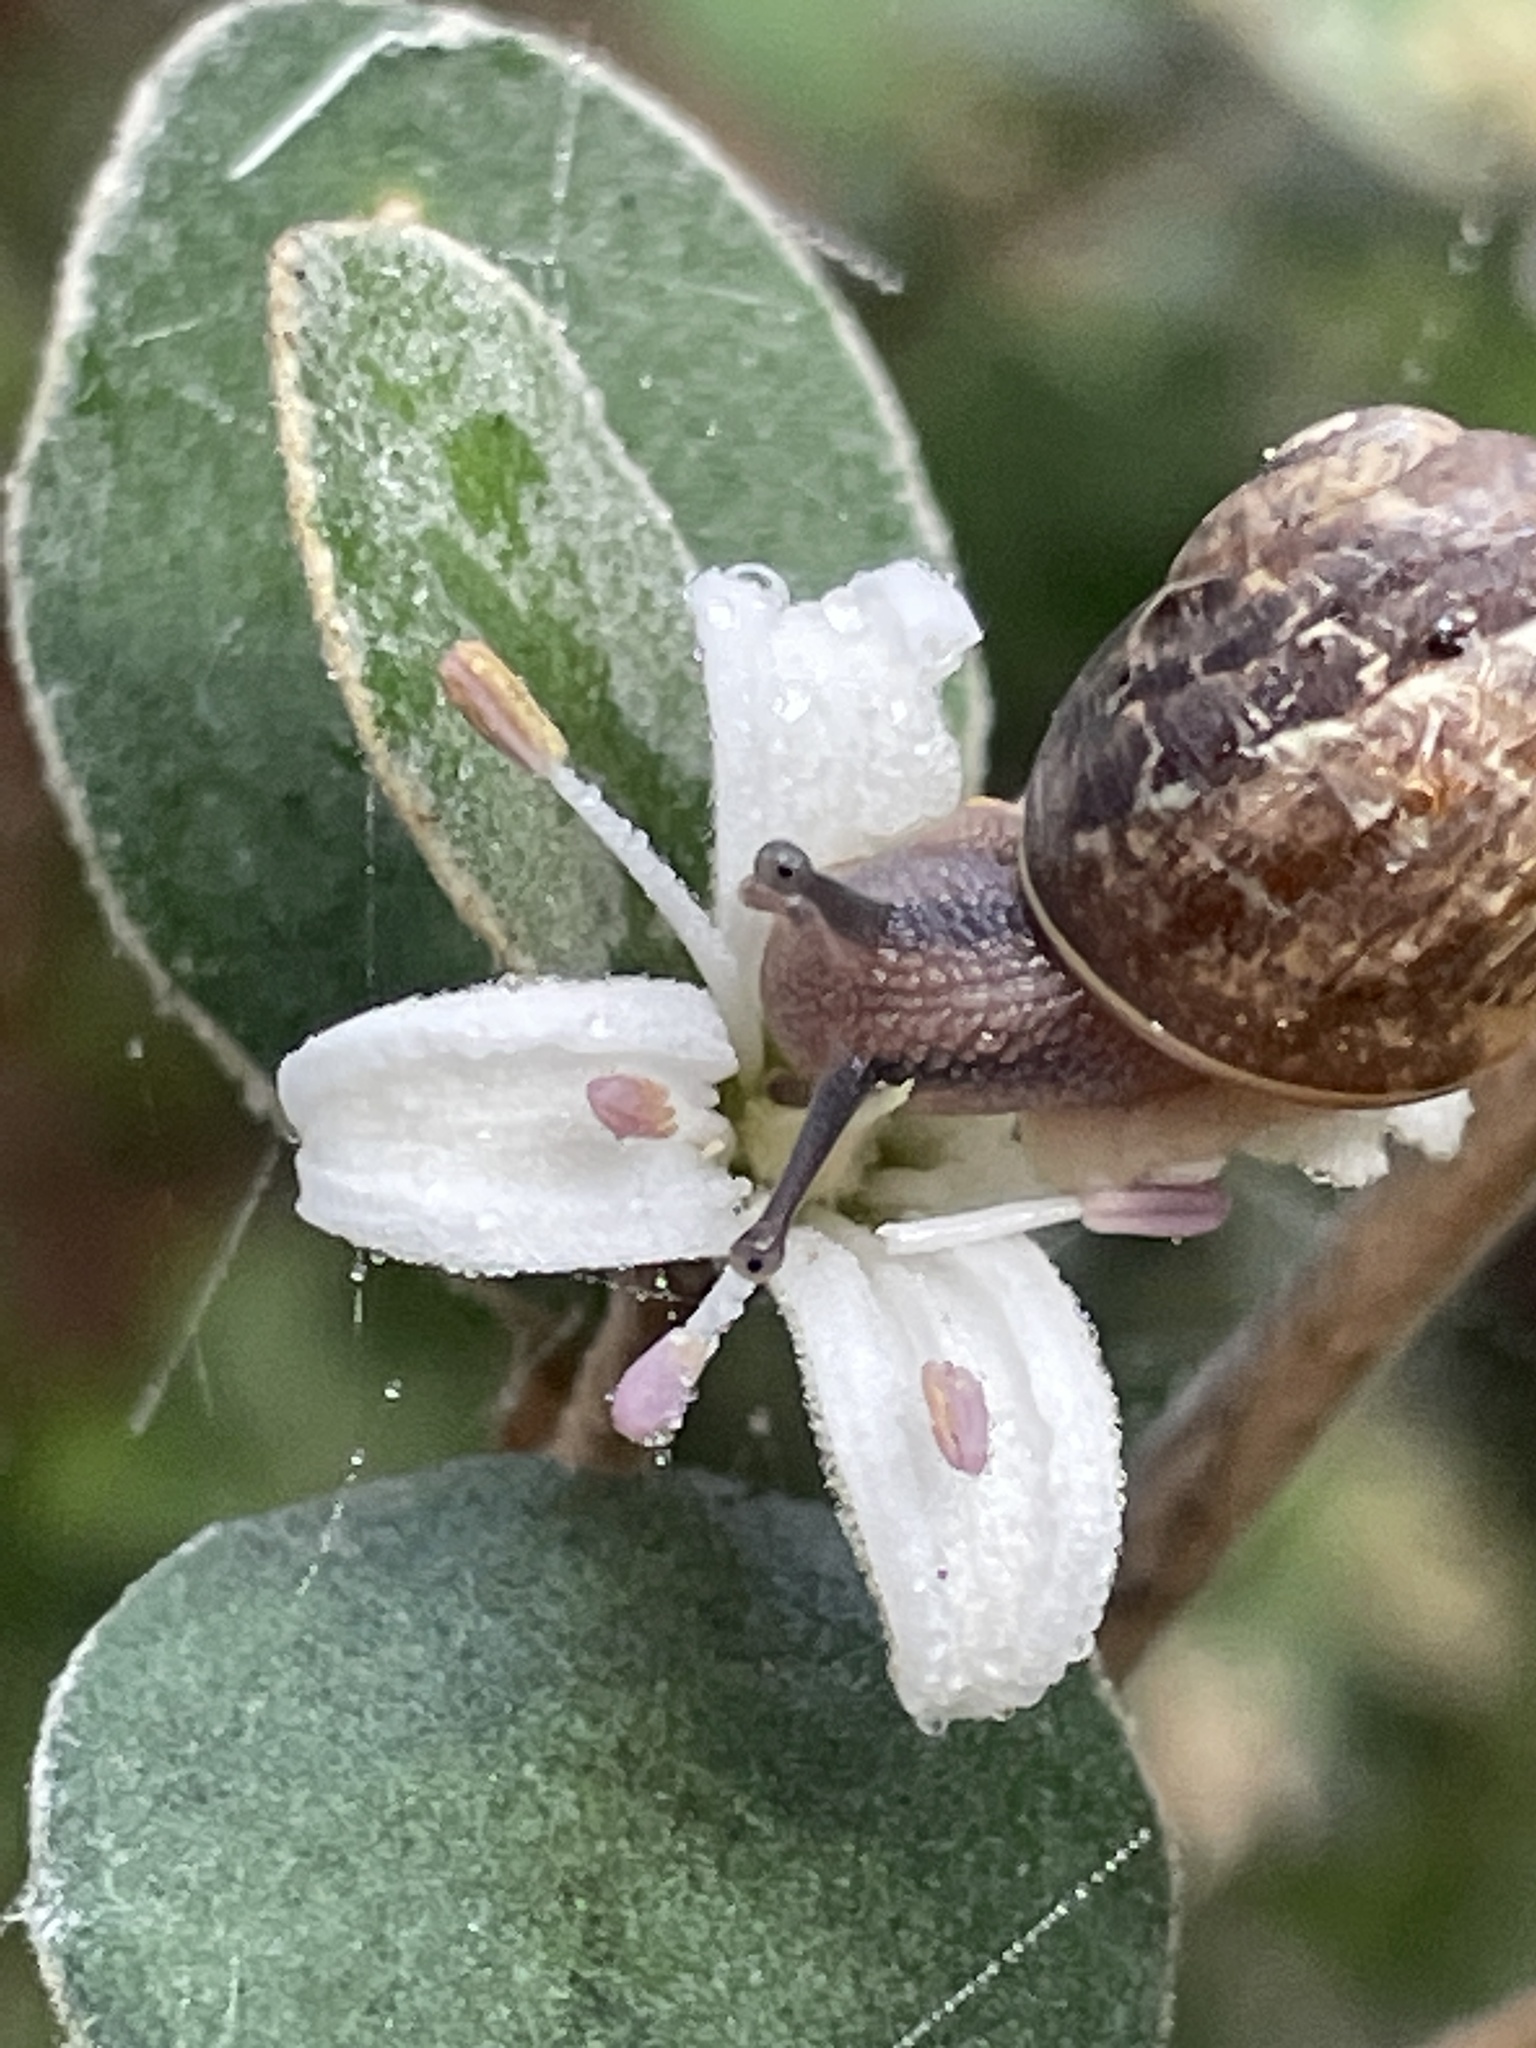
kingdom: Animalia
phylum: Mollusca
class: Gastropoda
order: Stylommatophora
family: Helicidae
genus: Cornu
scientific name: Cornu aspersum
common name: Brown garden snail
